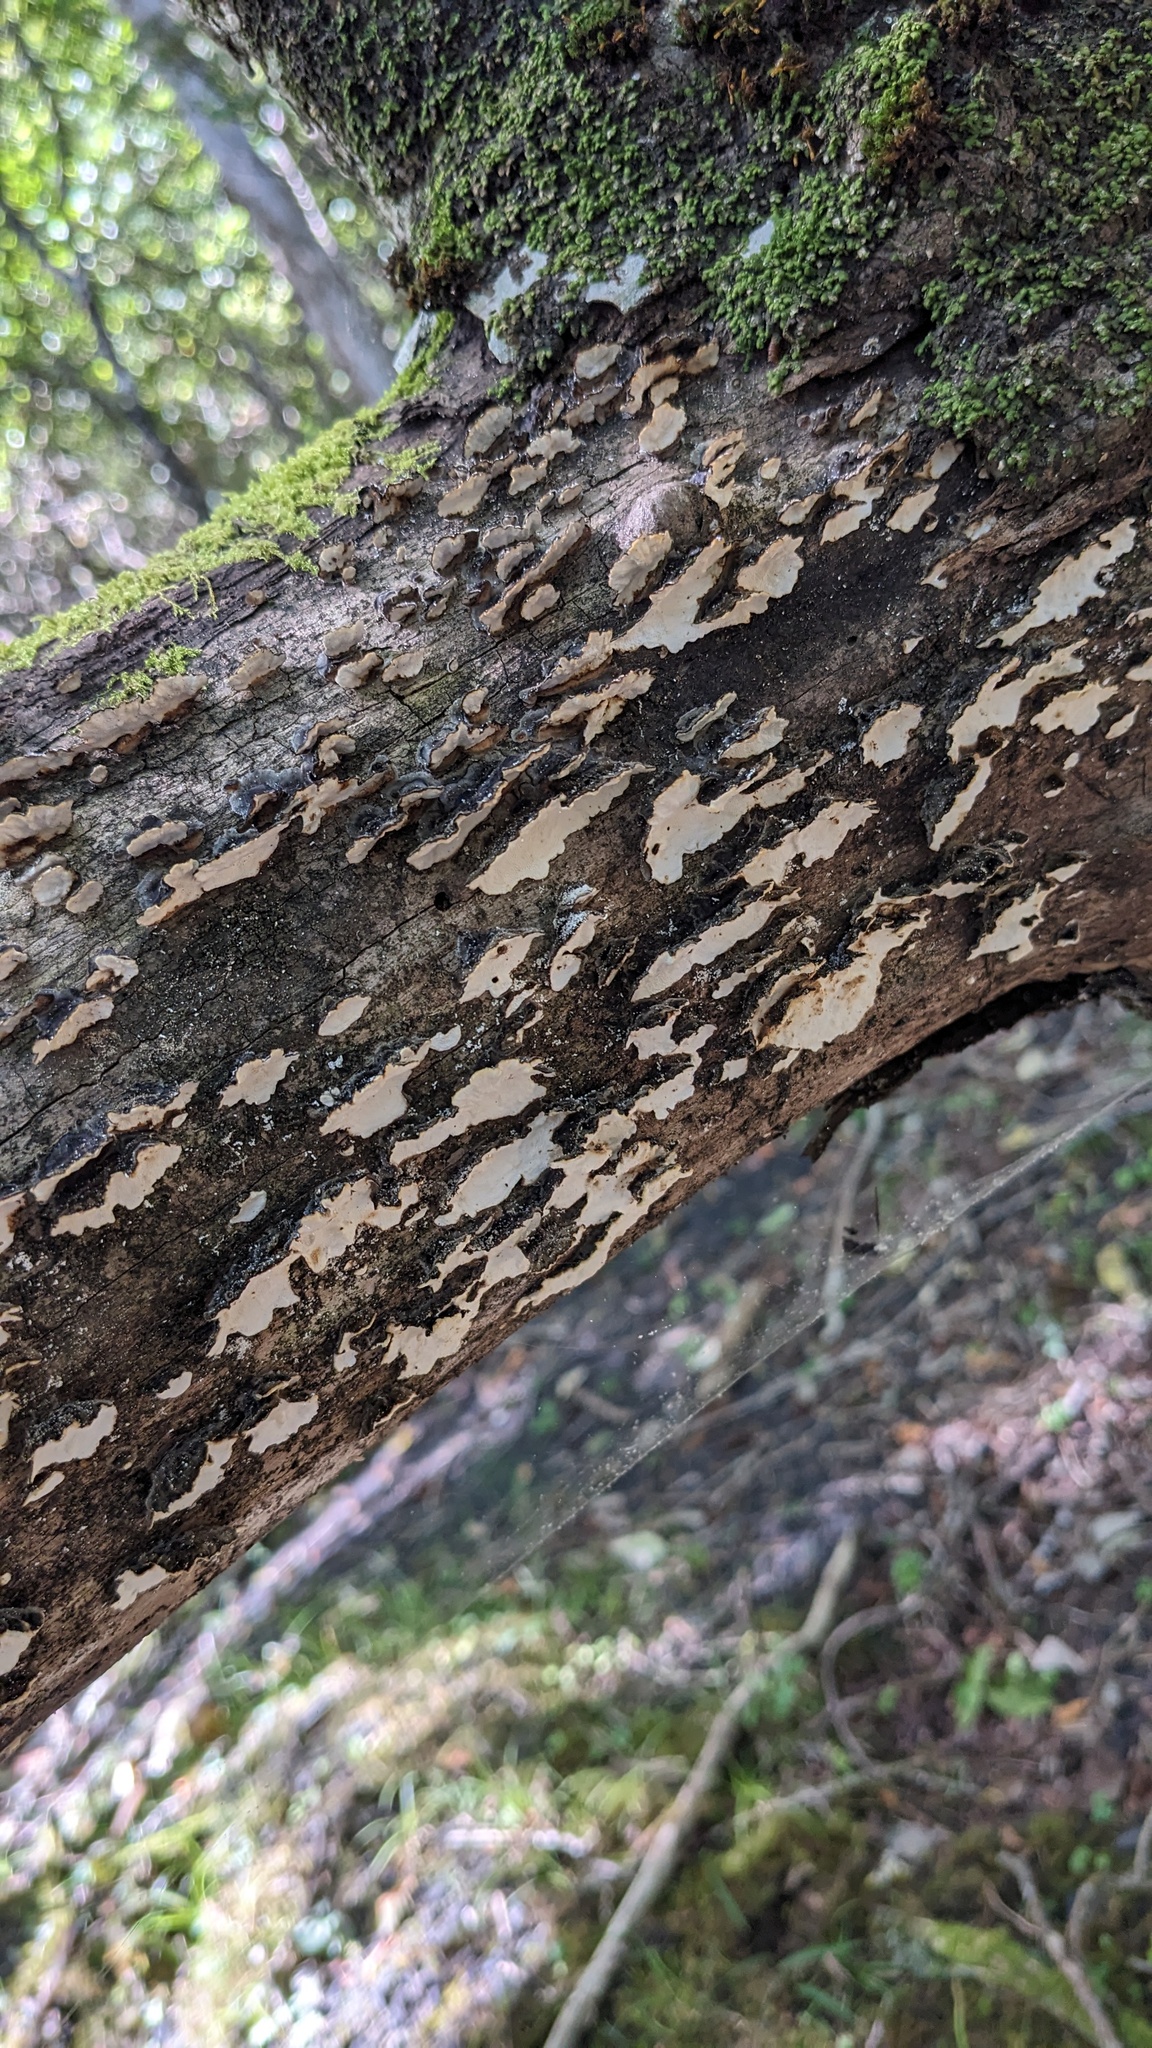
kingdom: Fungi
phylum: Basidiomycota
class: Agaricomycetes
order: Polyporales
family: Polyporaceae
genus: Trametes
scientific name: Trametes versicolor
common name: Turkeytail
